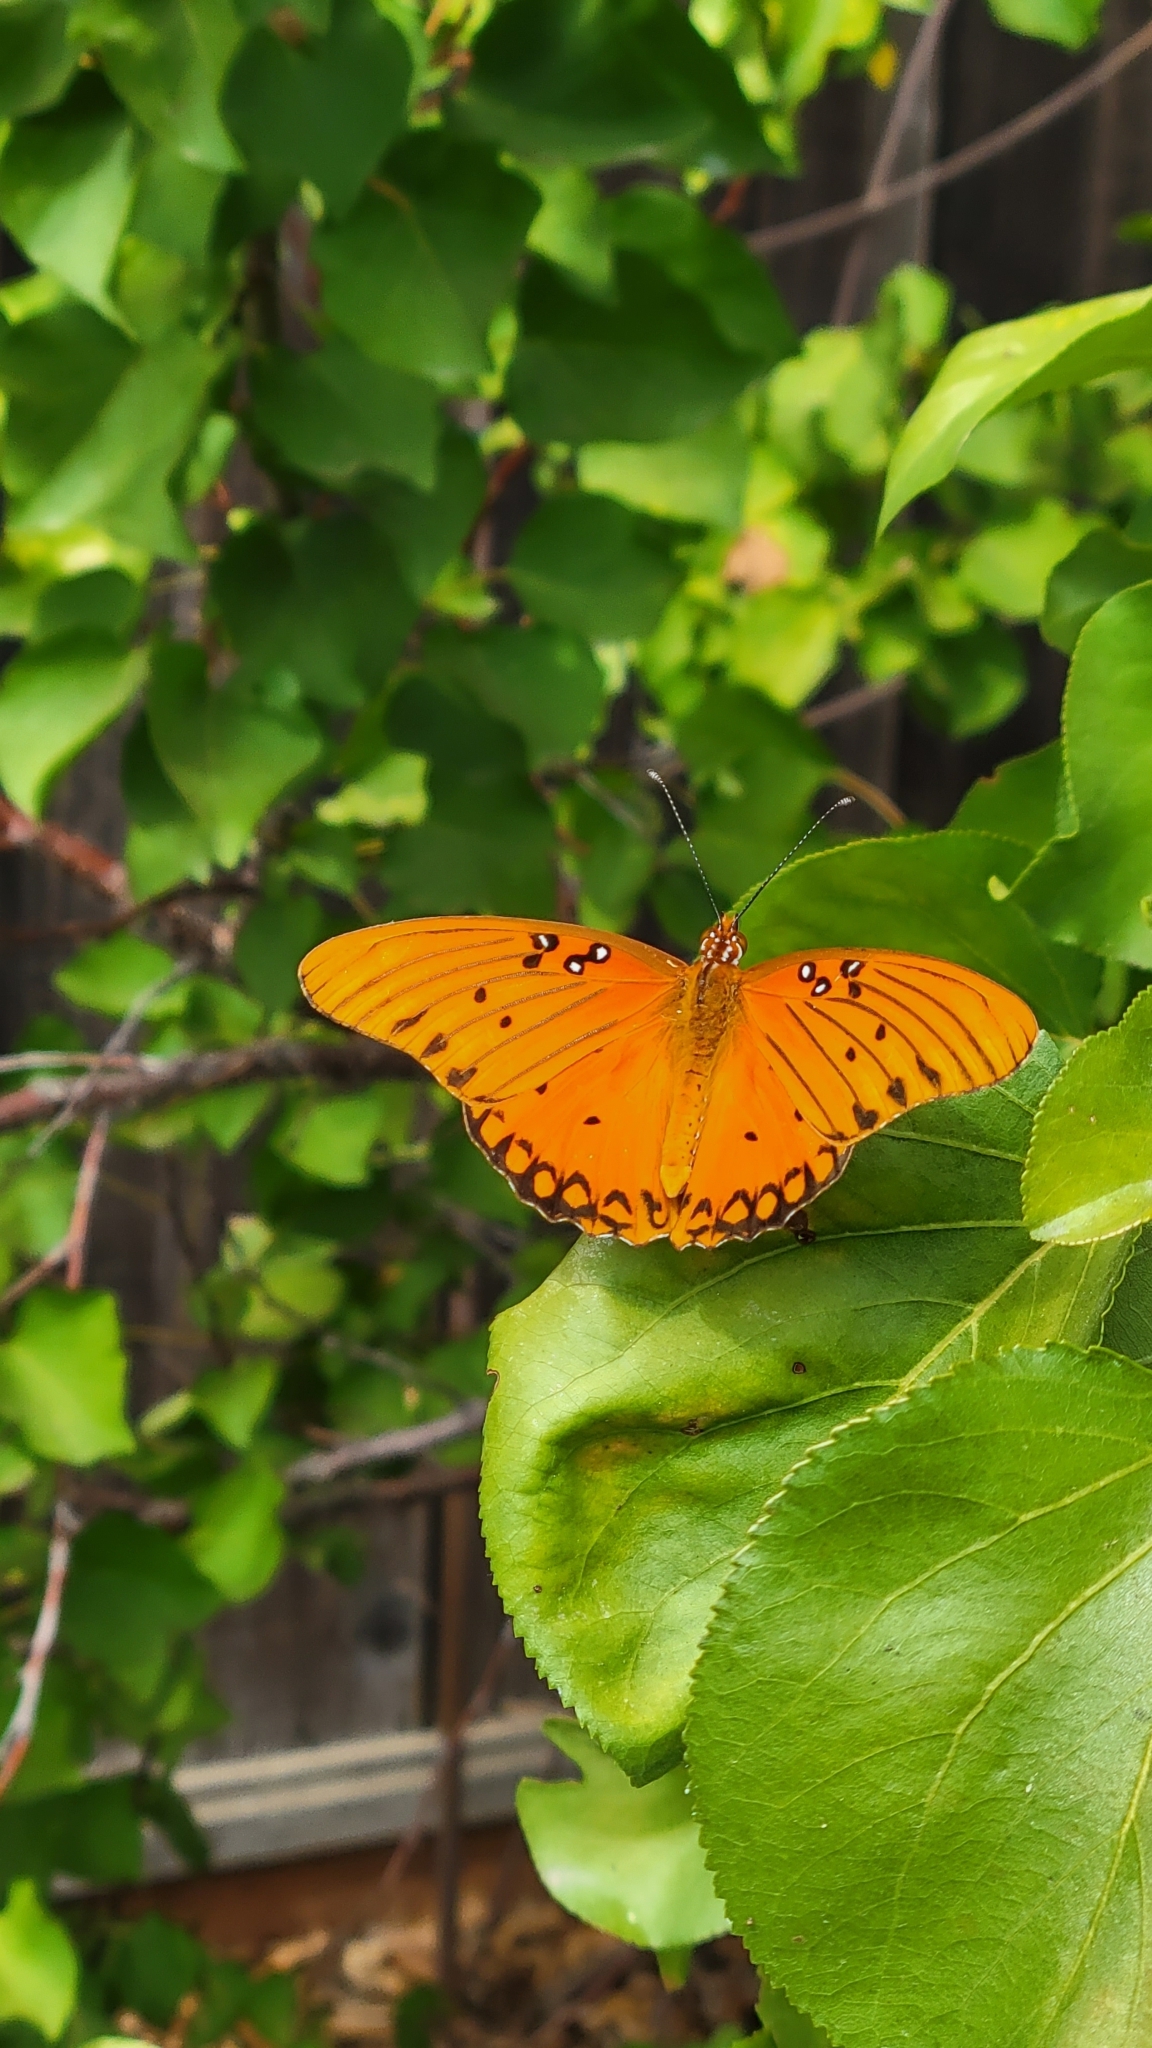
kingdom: Animalia
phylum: Arthropoda
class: Insecta
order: Lepidoptera
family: Nymphalidae
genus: Dione
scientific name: Dione vanillae
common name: Gulf fritillary
